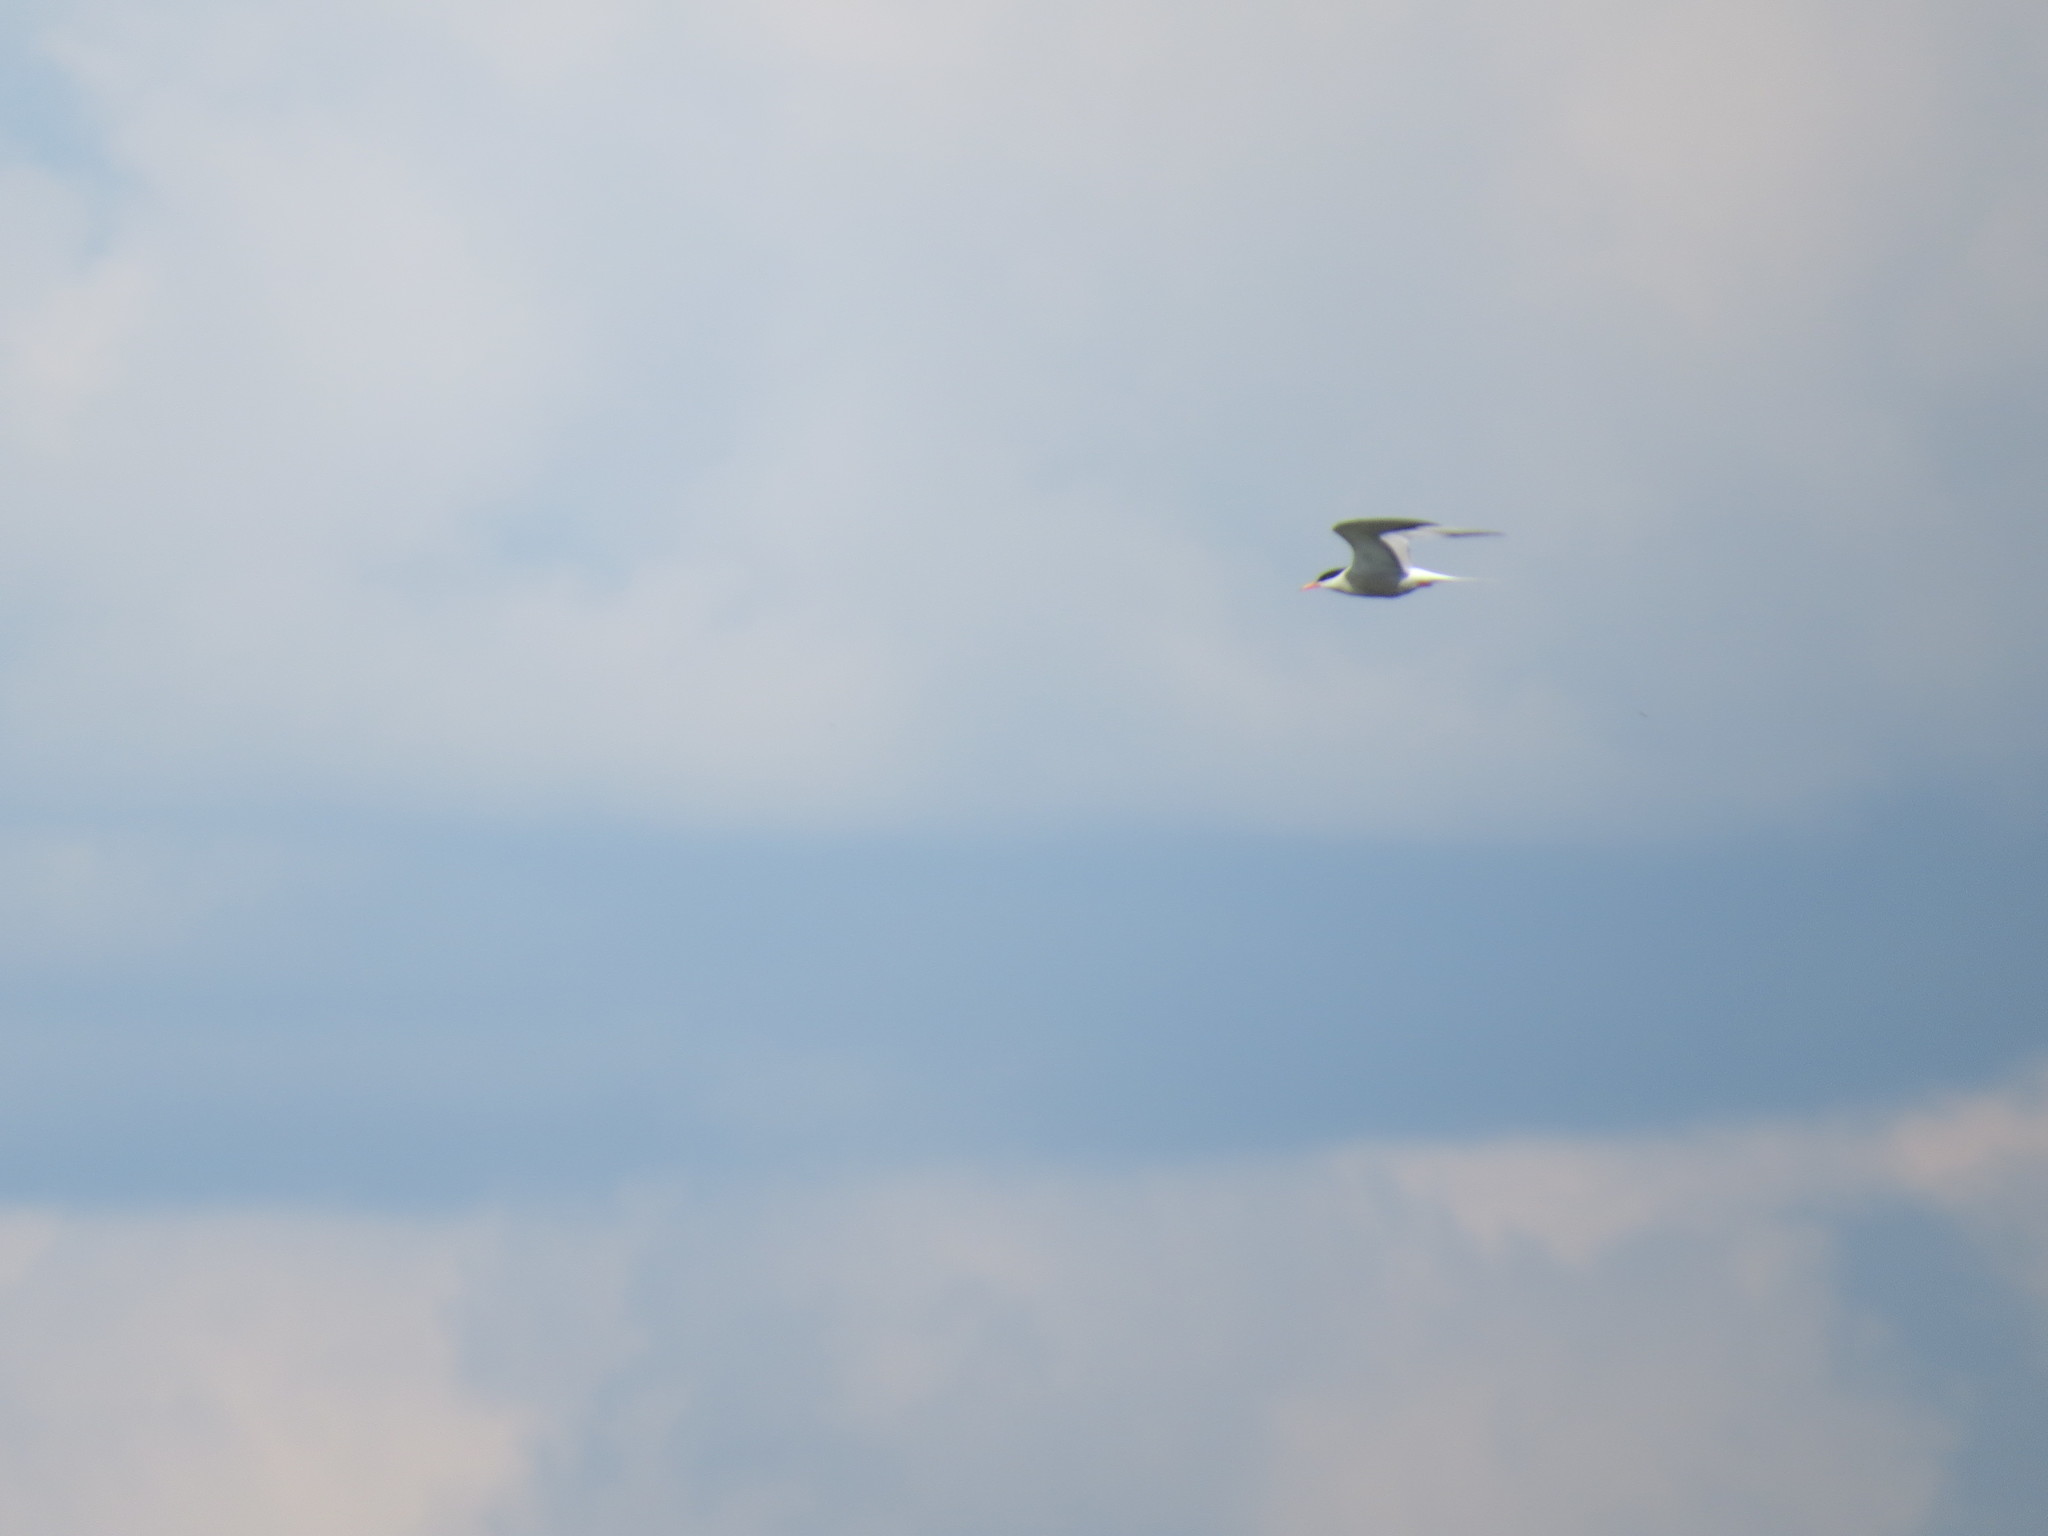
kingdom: Animalia
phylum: Chordata
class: Aves
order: Charadriiformes
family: Laridae
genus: Sterna
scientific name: Sterna hirundo
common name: Common tern
